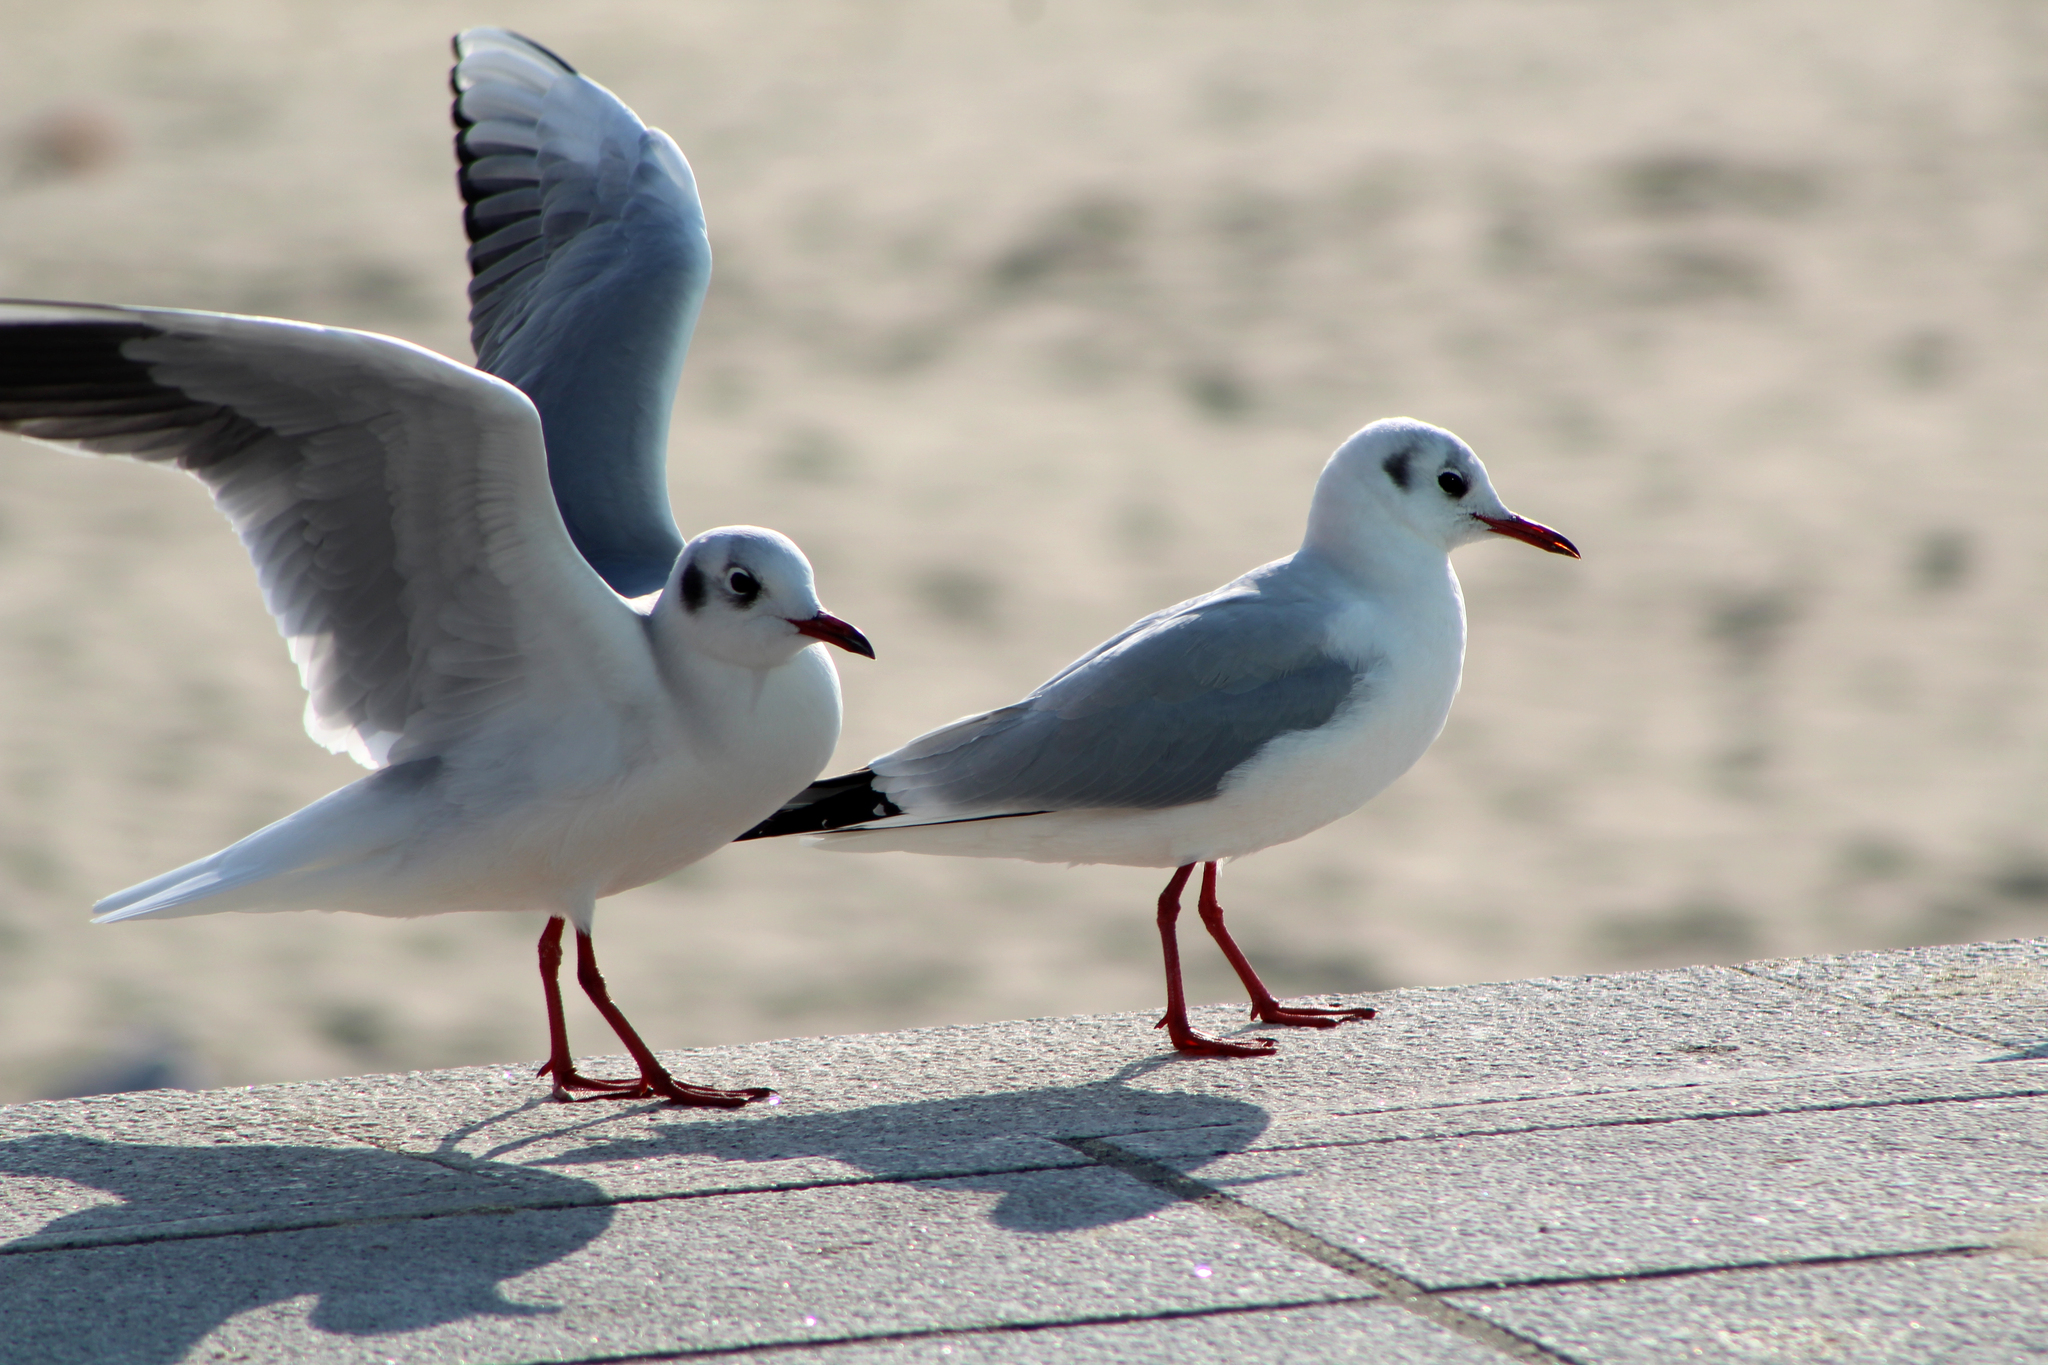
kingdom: Animalia
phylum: Chordata
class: Aves
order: Charadriiformes
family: Laridae
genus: Chroicocephalus
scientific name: Chroicocephalus ridibundus
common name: Black-headed gull
